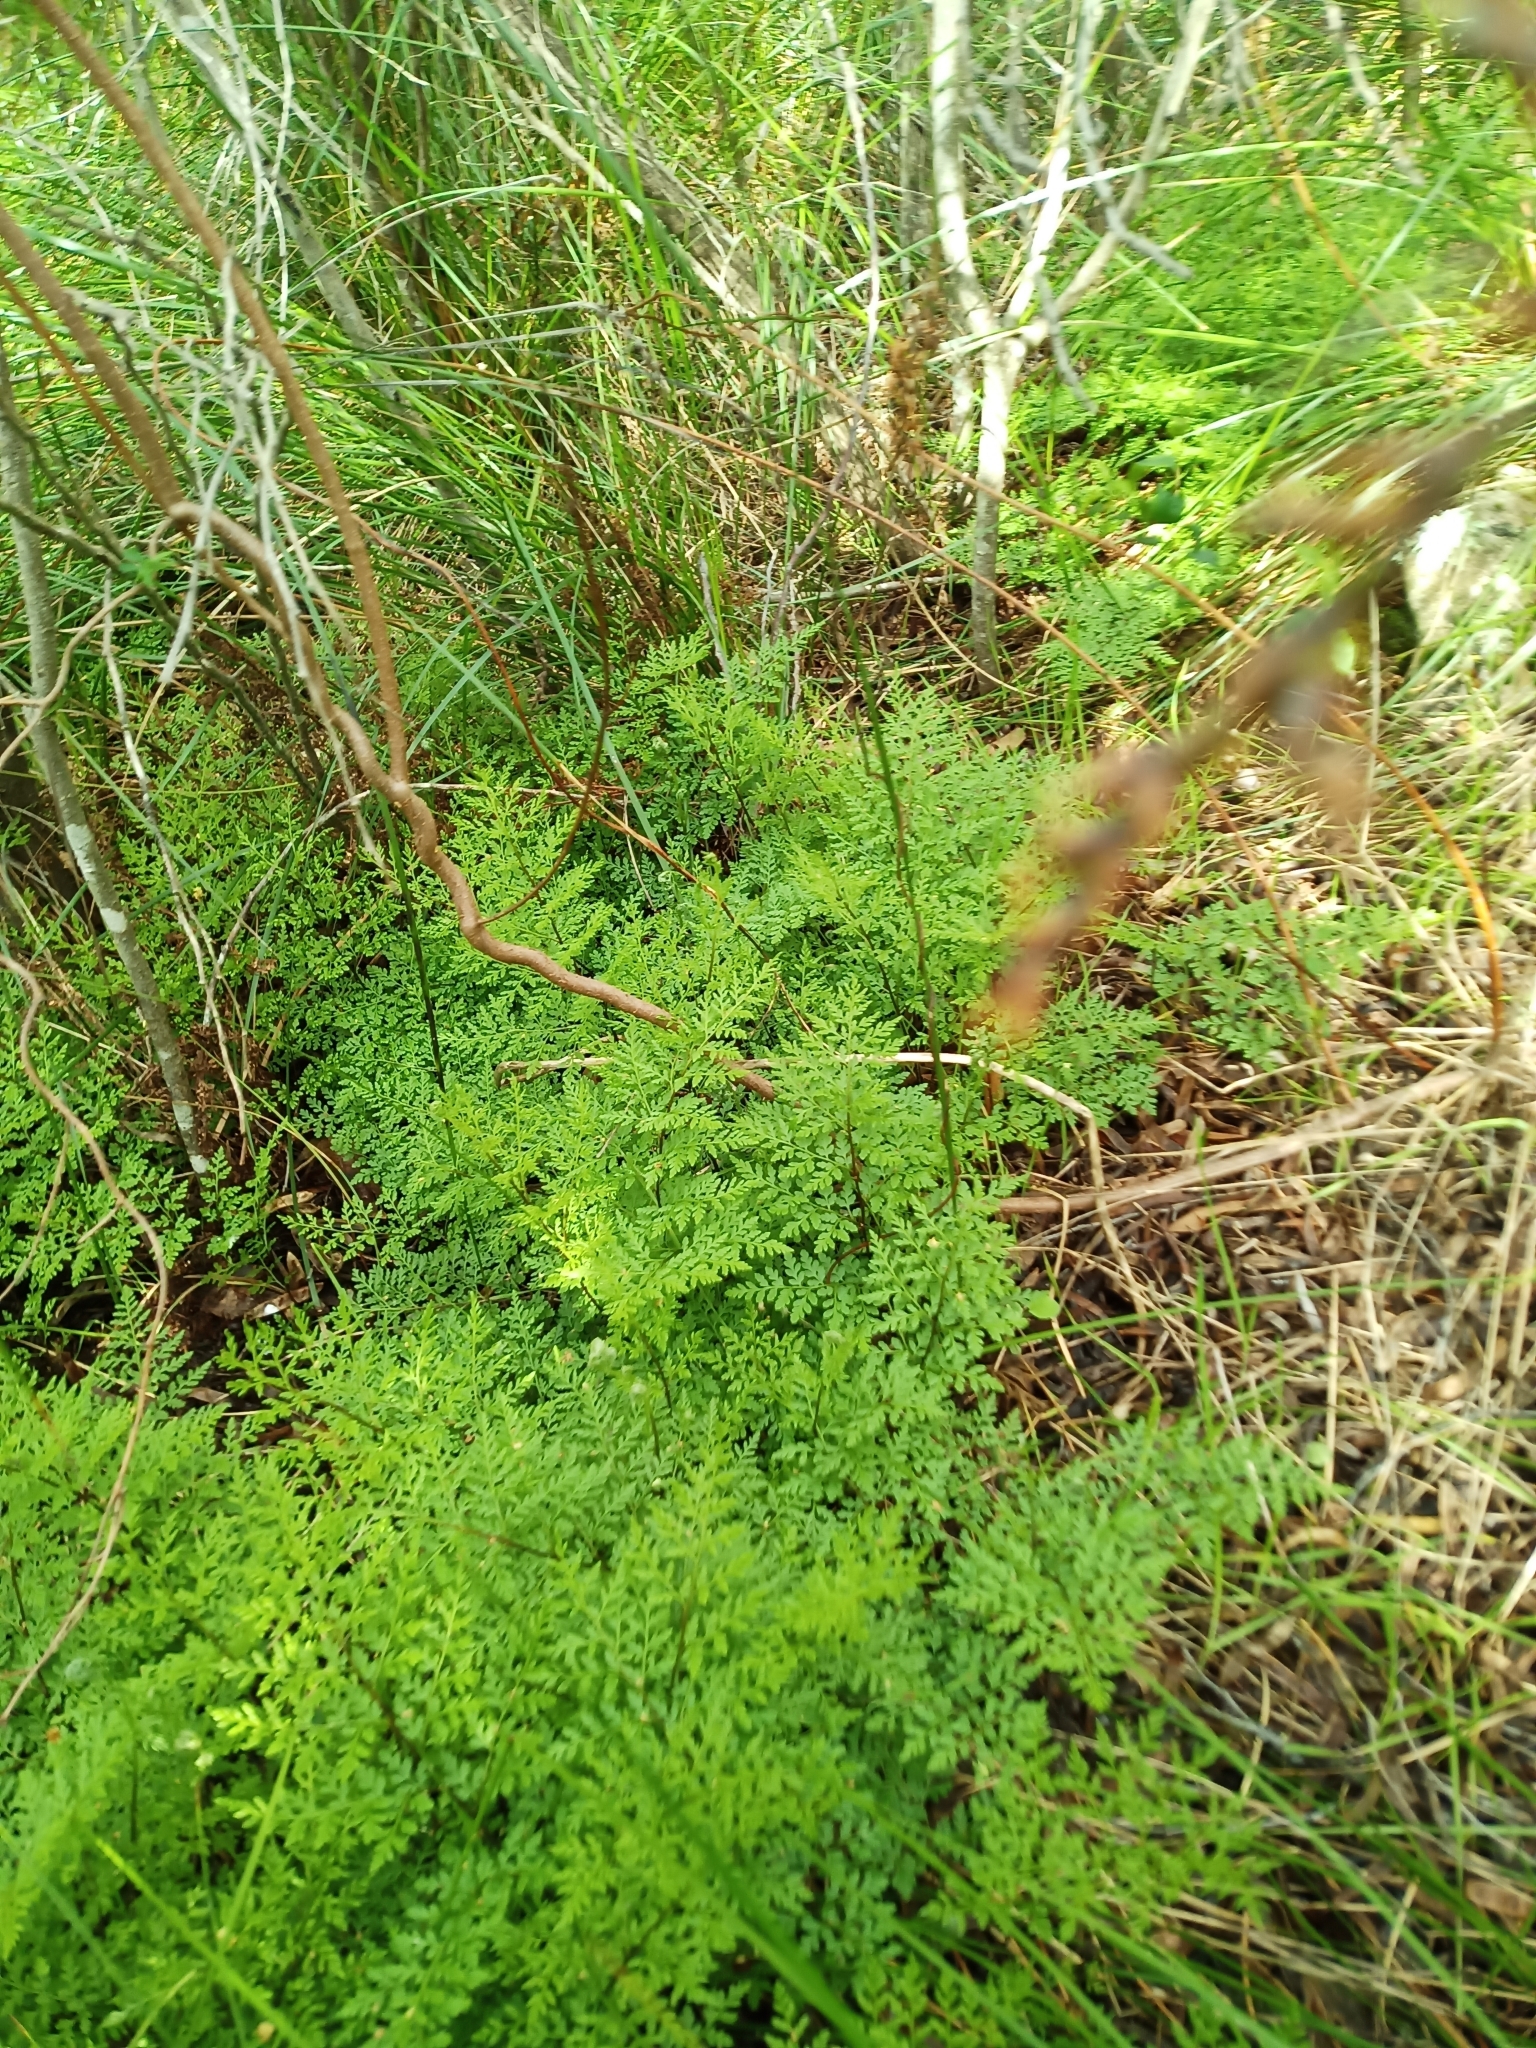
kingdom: Plantae
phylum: Tracheophyta
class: Polypodiopsida
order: Polypodiales
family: Pteridaceae
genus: Cheilanthes
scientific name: Cheilanthes austrotenuifolia
